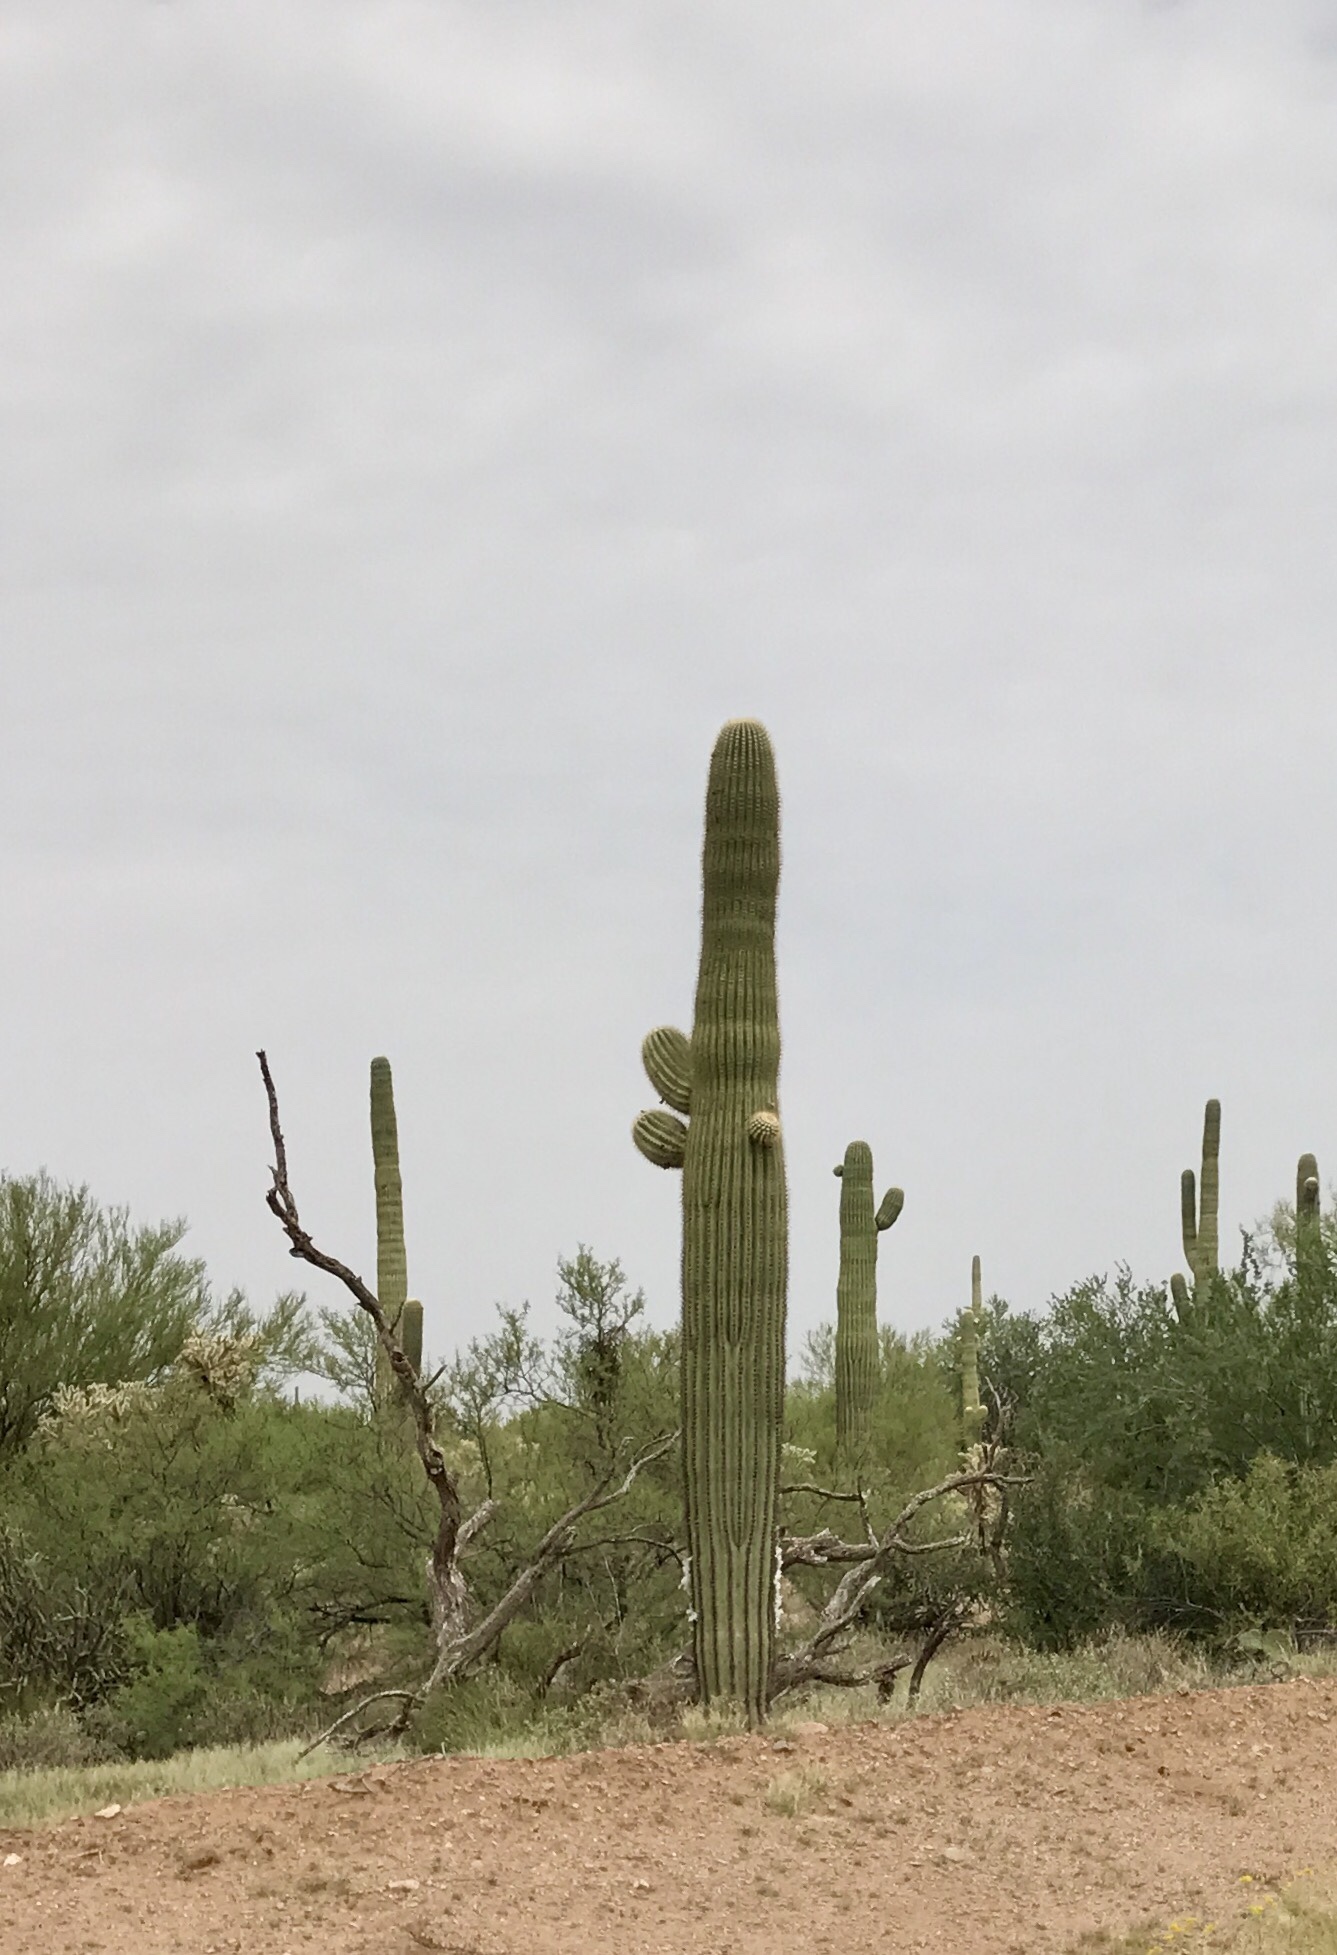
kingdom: Plantae
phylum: Tracheophyta
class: Magnoliopsida
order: Caryophyllales
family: Cactaceae
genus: Carnegiea
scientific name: Carnegiea gigantea
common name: Saguaro
